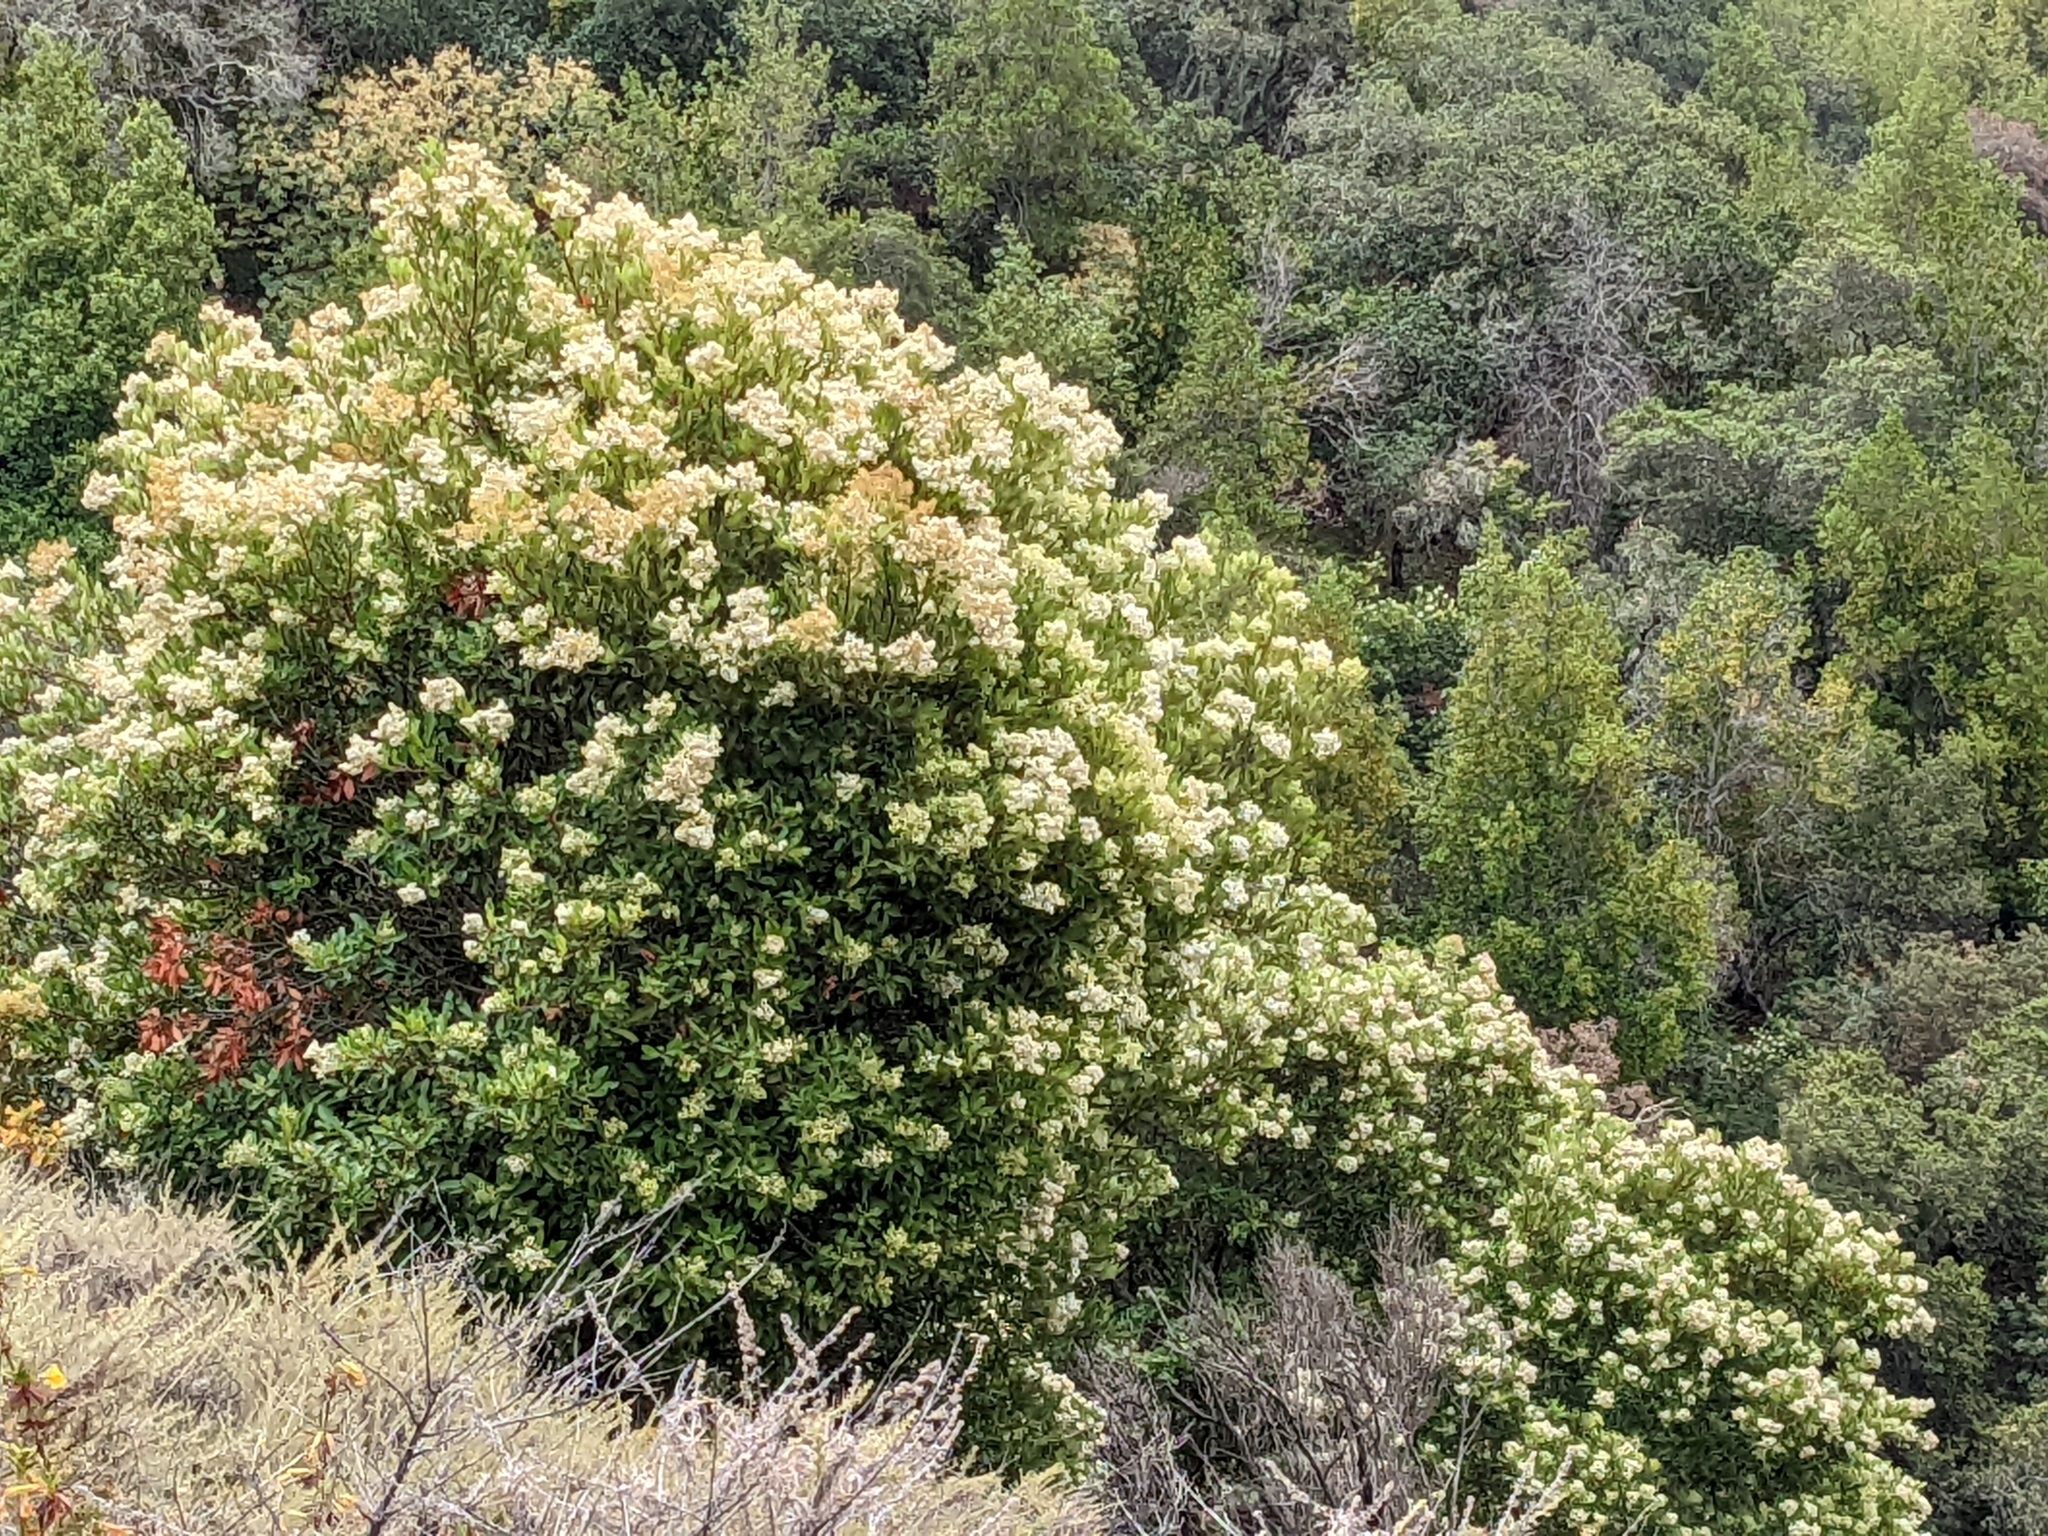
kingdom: Plantae
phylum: Tracheophyta
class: Magnoliopsida
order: Rosales
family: Rosaceae
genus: Heteromeles
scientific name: Heteromeles arbutifolia
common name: California-holly
